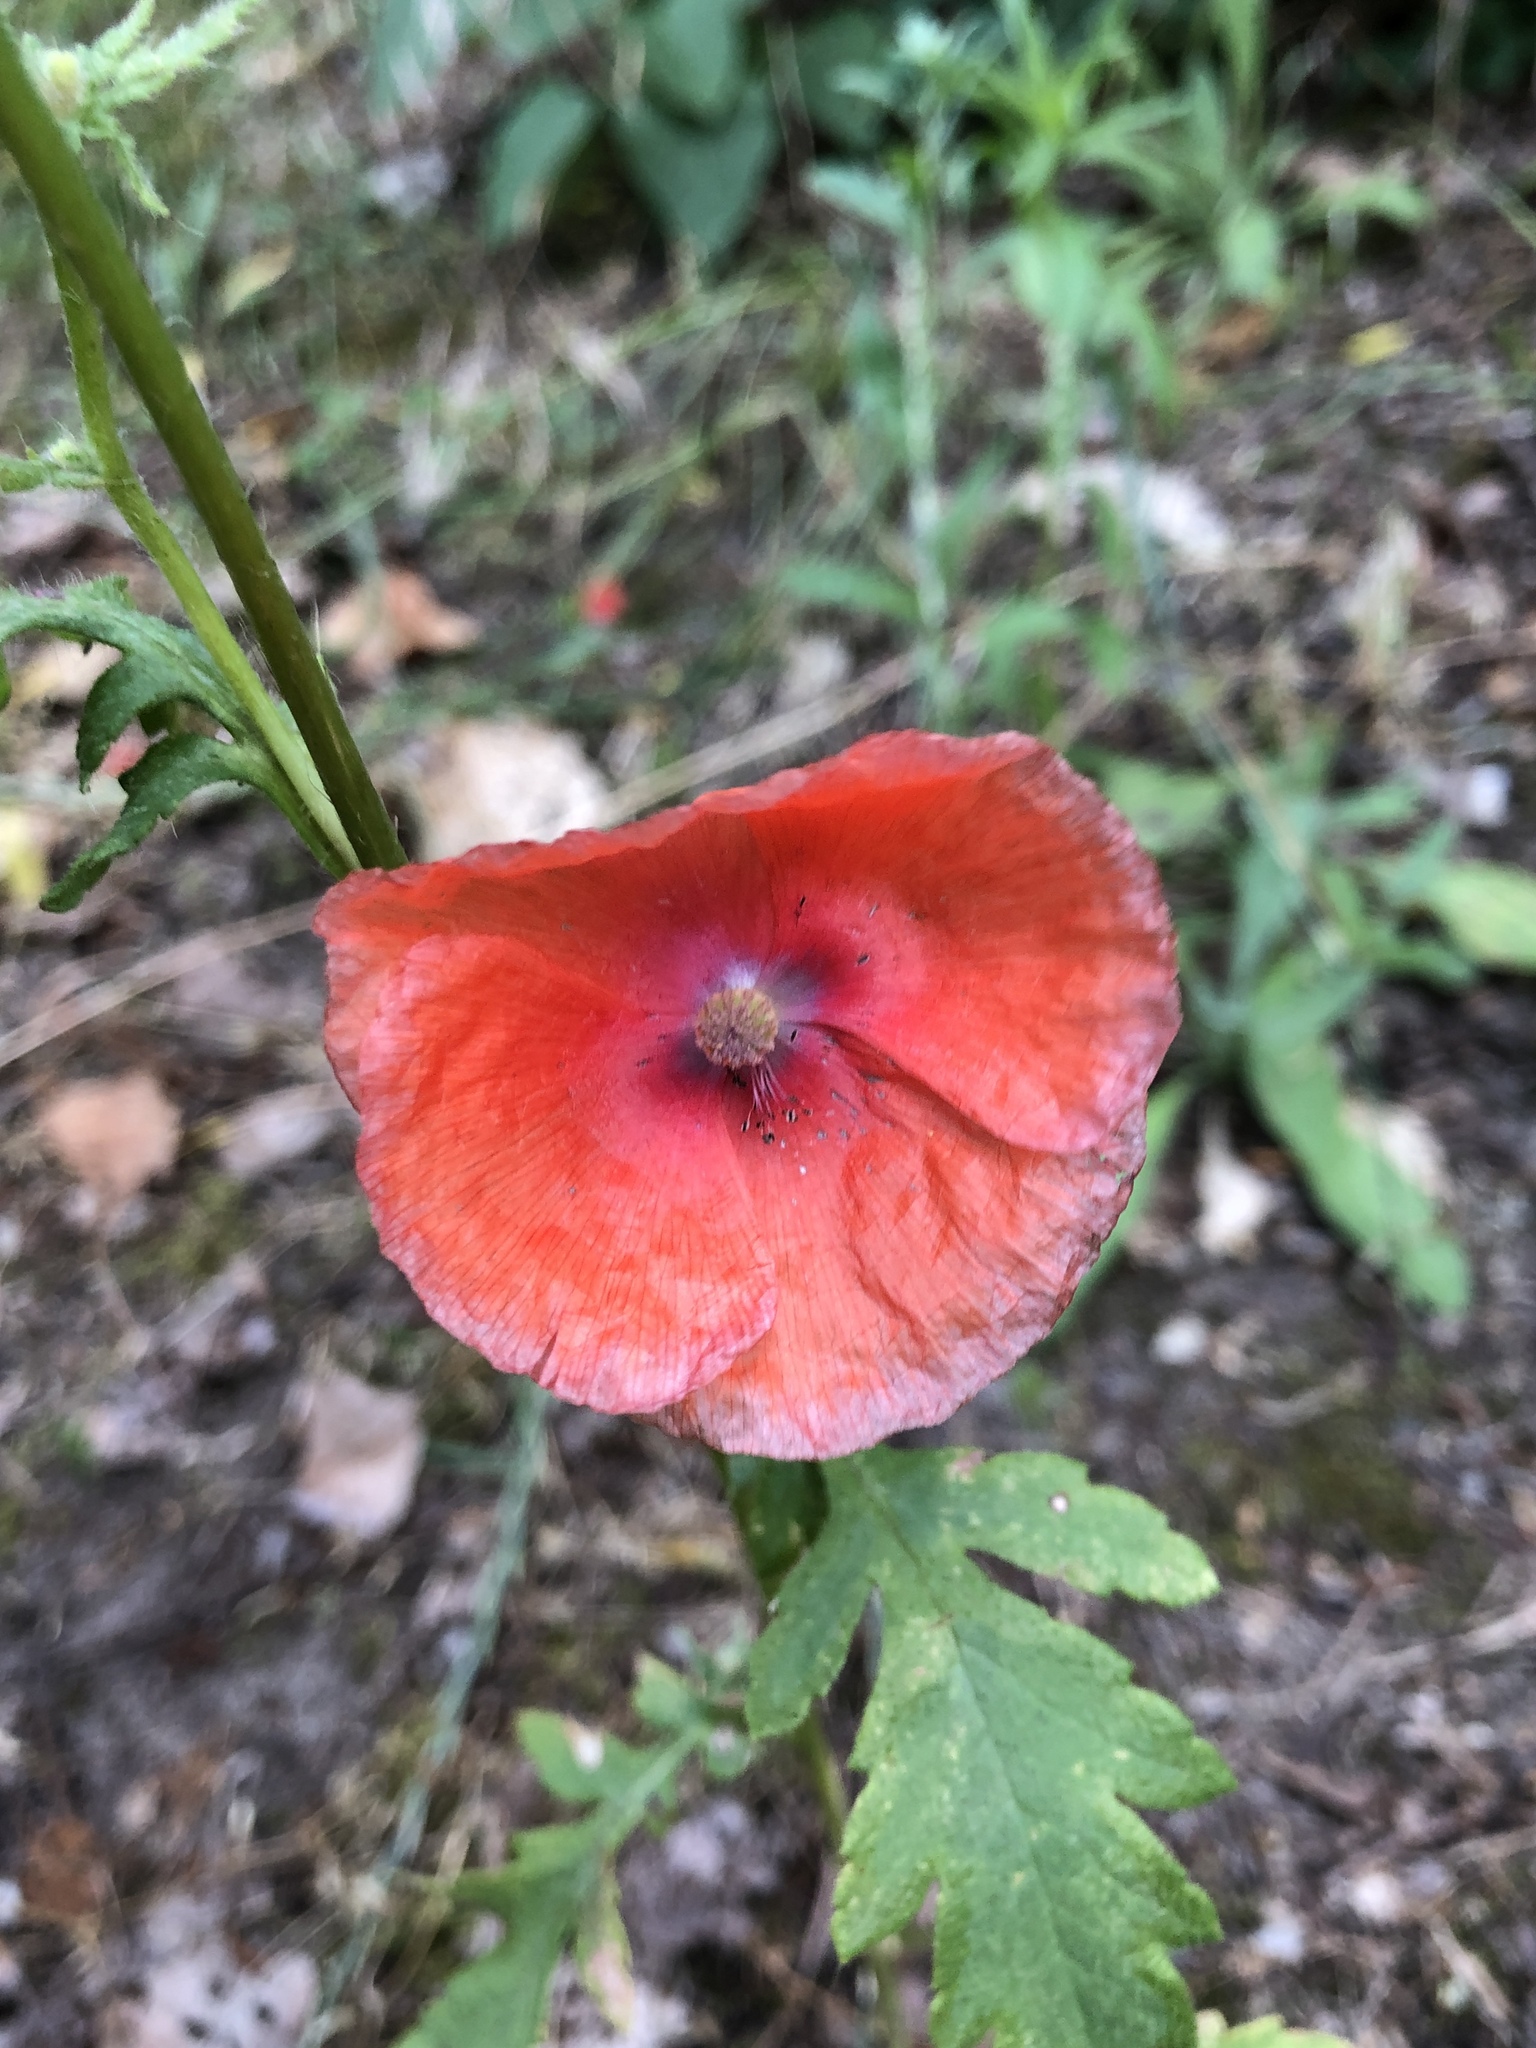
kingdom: Plantae
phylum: Tracheophyta
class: Magnoliopsida
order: Ranunculales
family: Papaveraceae
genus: Papaver
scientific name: Papaver rhoeas
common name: Corn poppy
